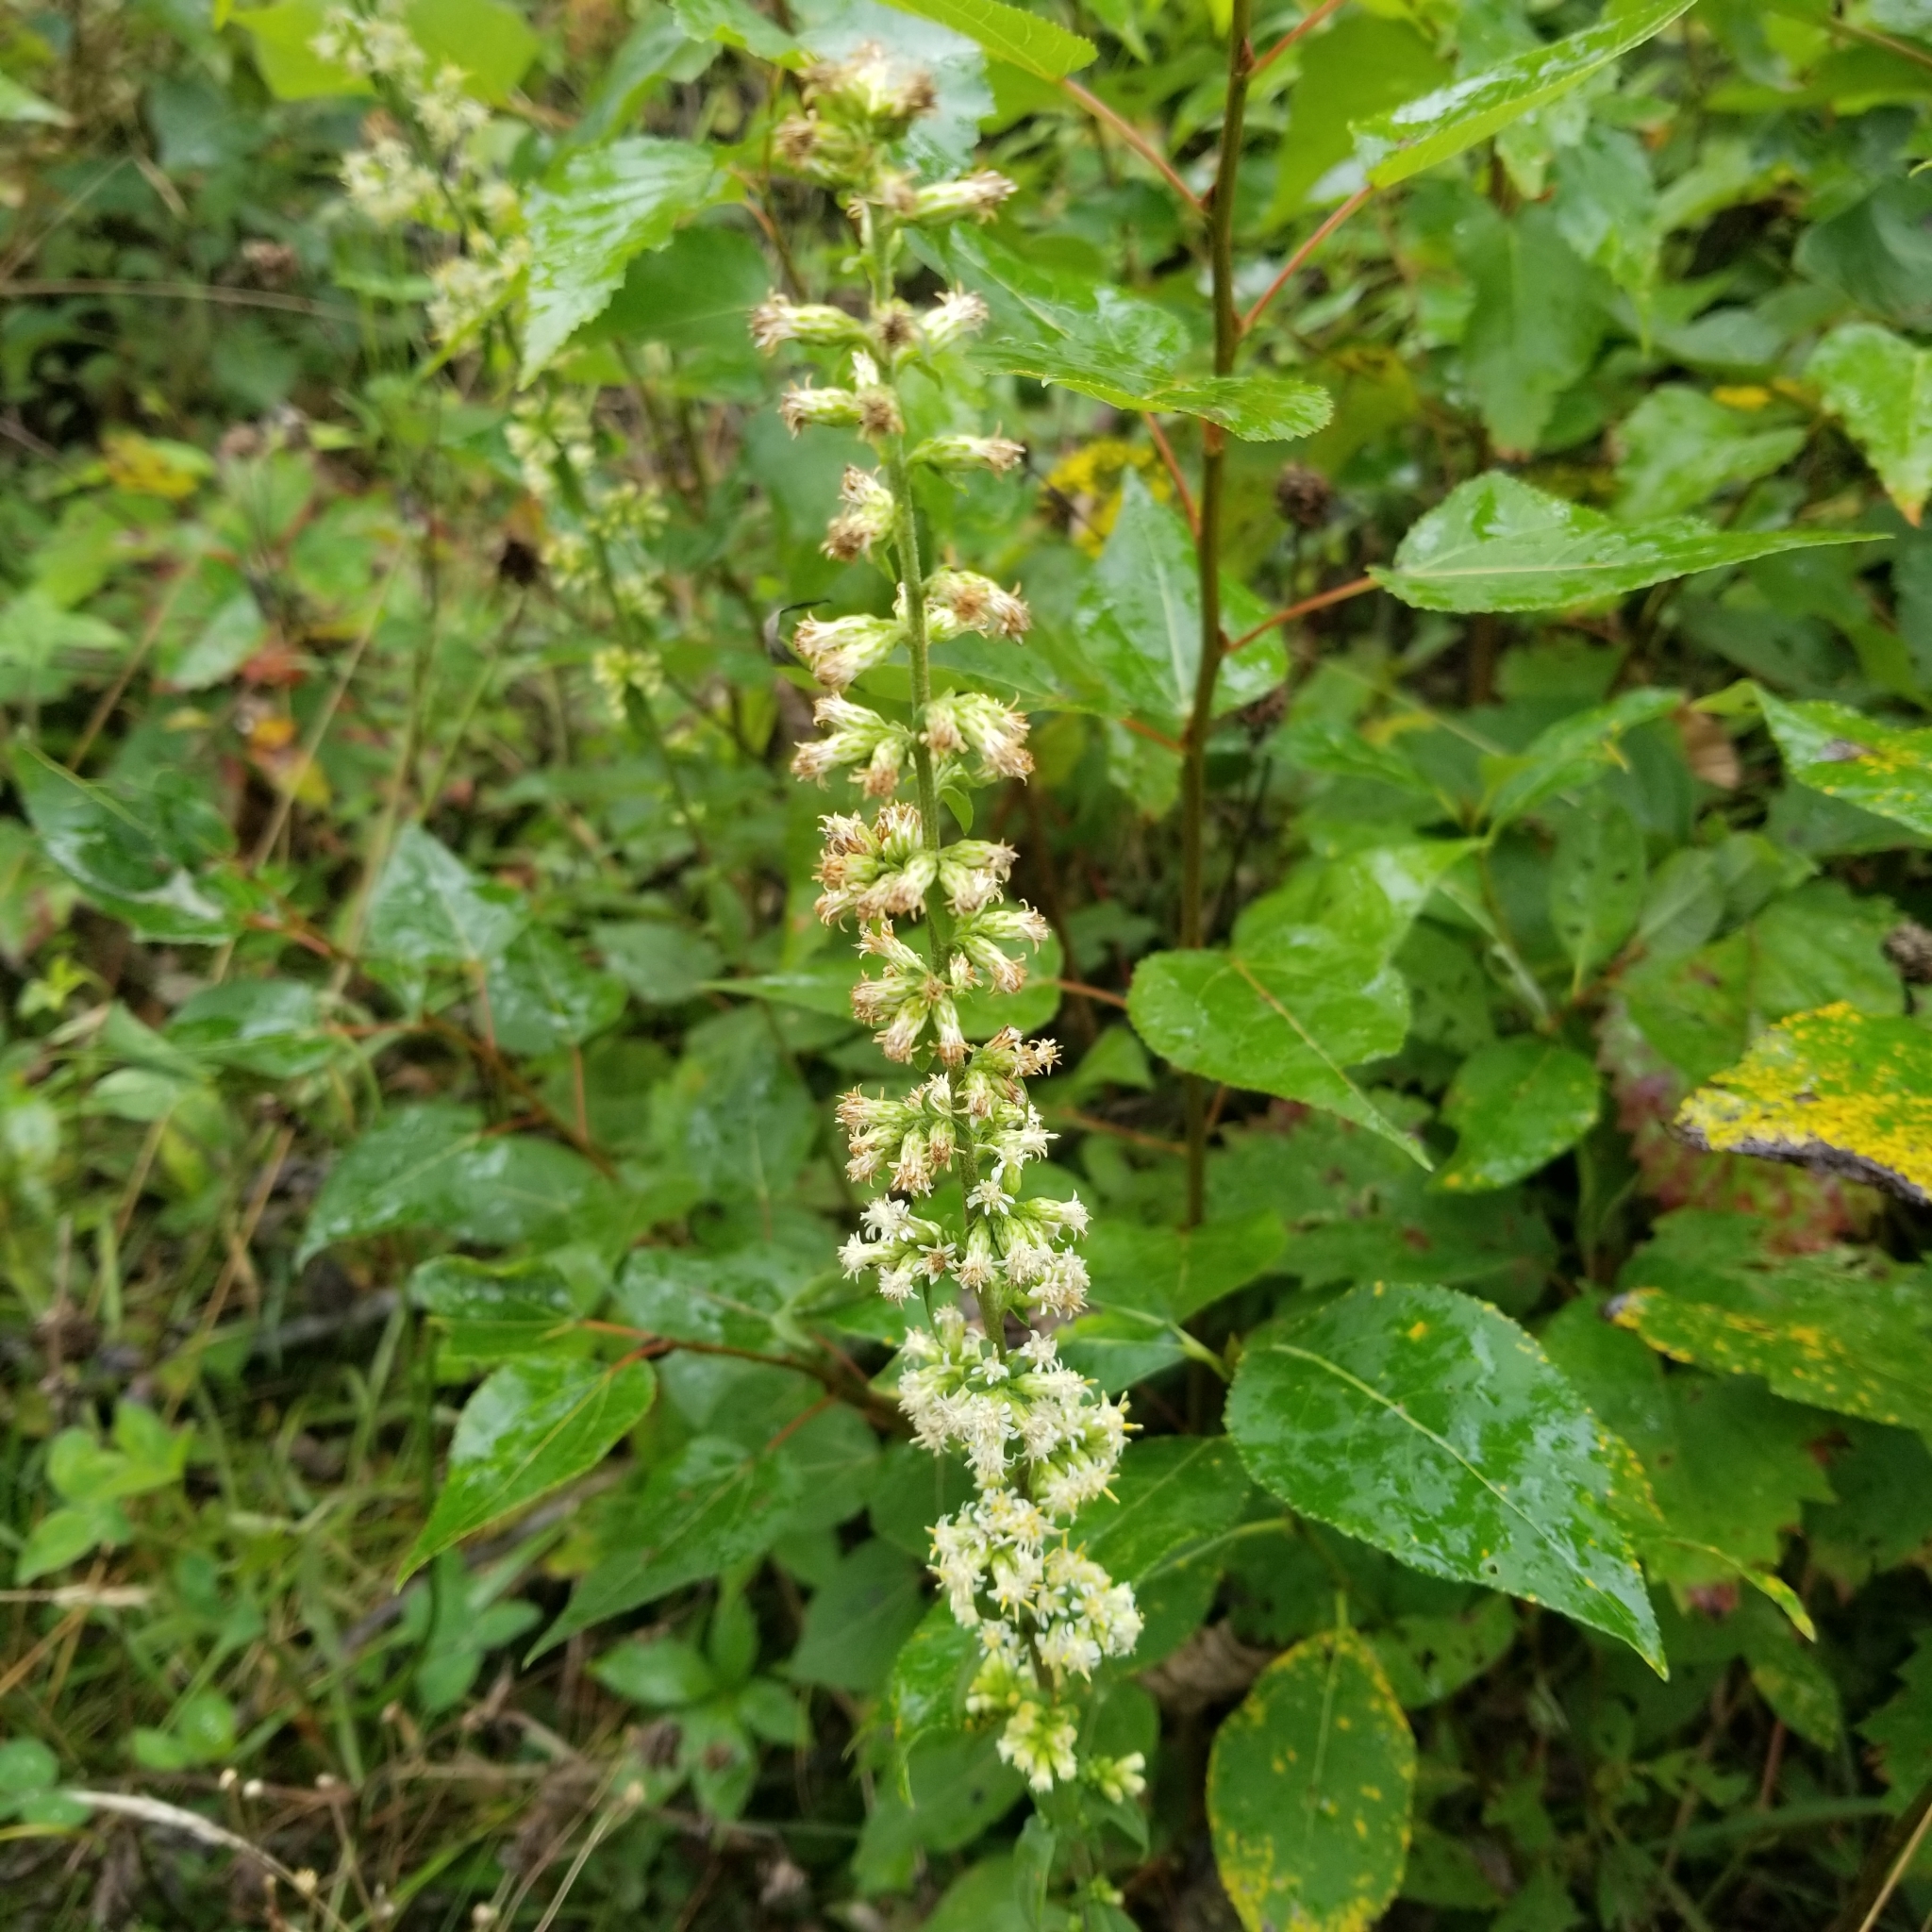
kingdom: Plantae
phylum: Tracheophyta
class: Magnoliopsida
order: Asterales
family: Asteraceae
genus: Solidago
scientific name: Solidago bicolor
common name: Silverrod
